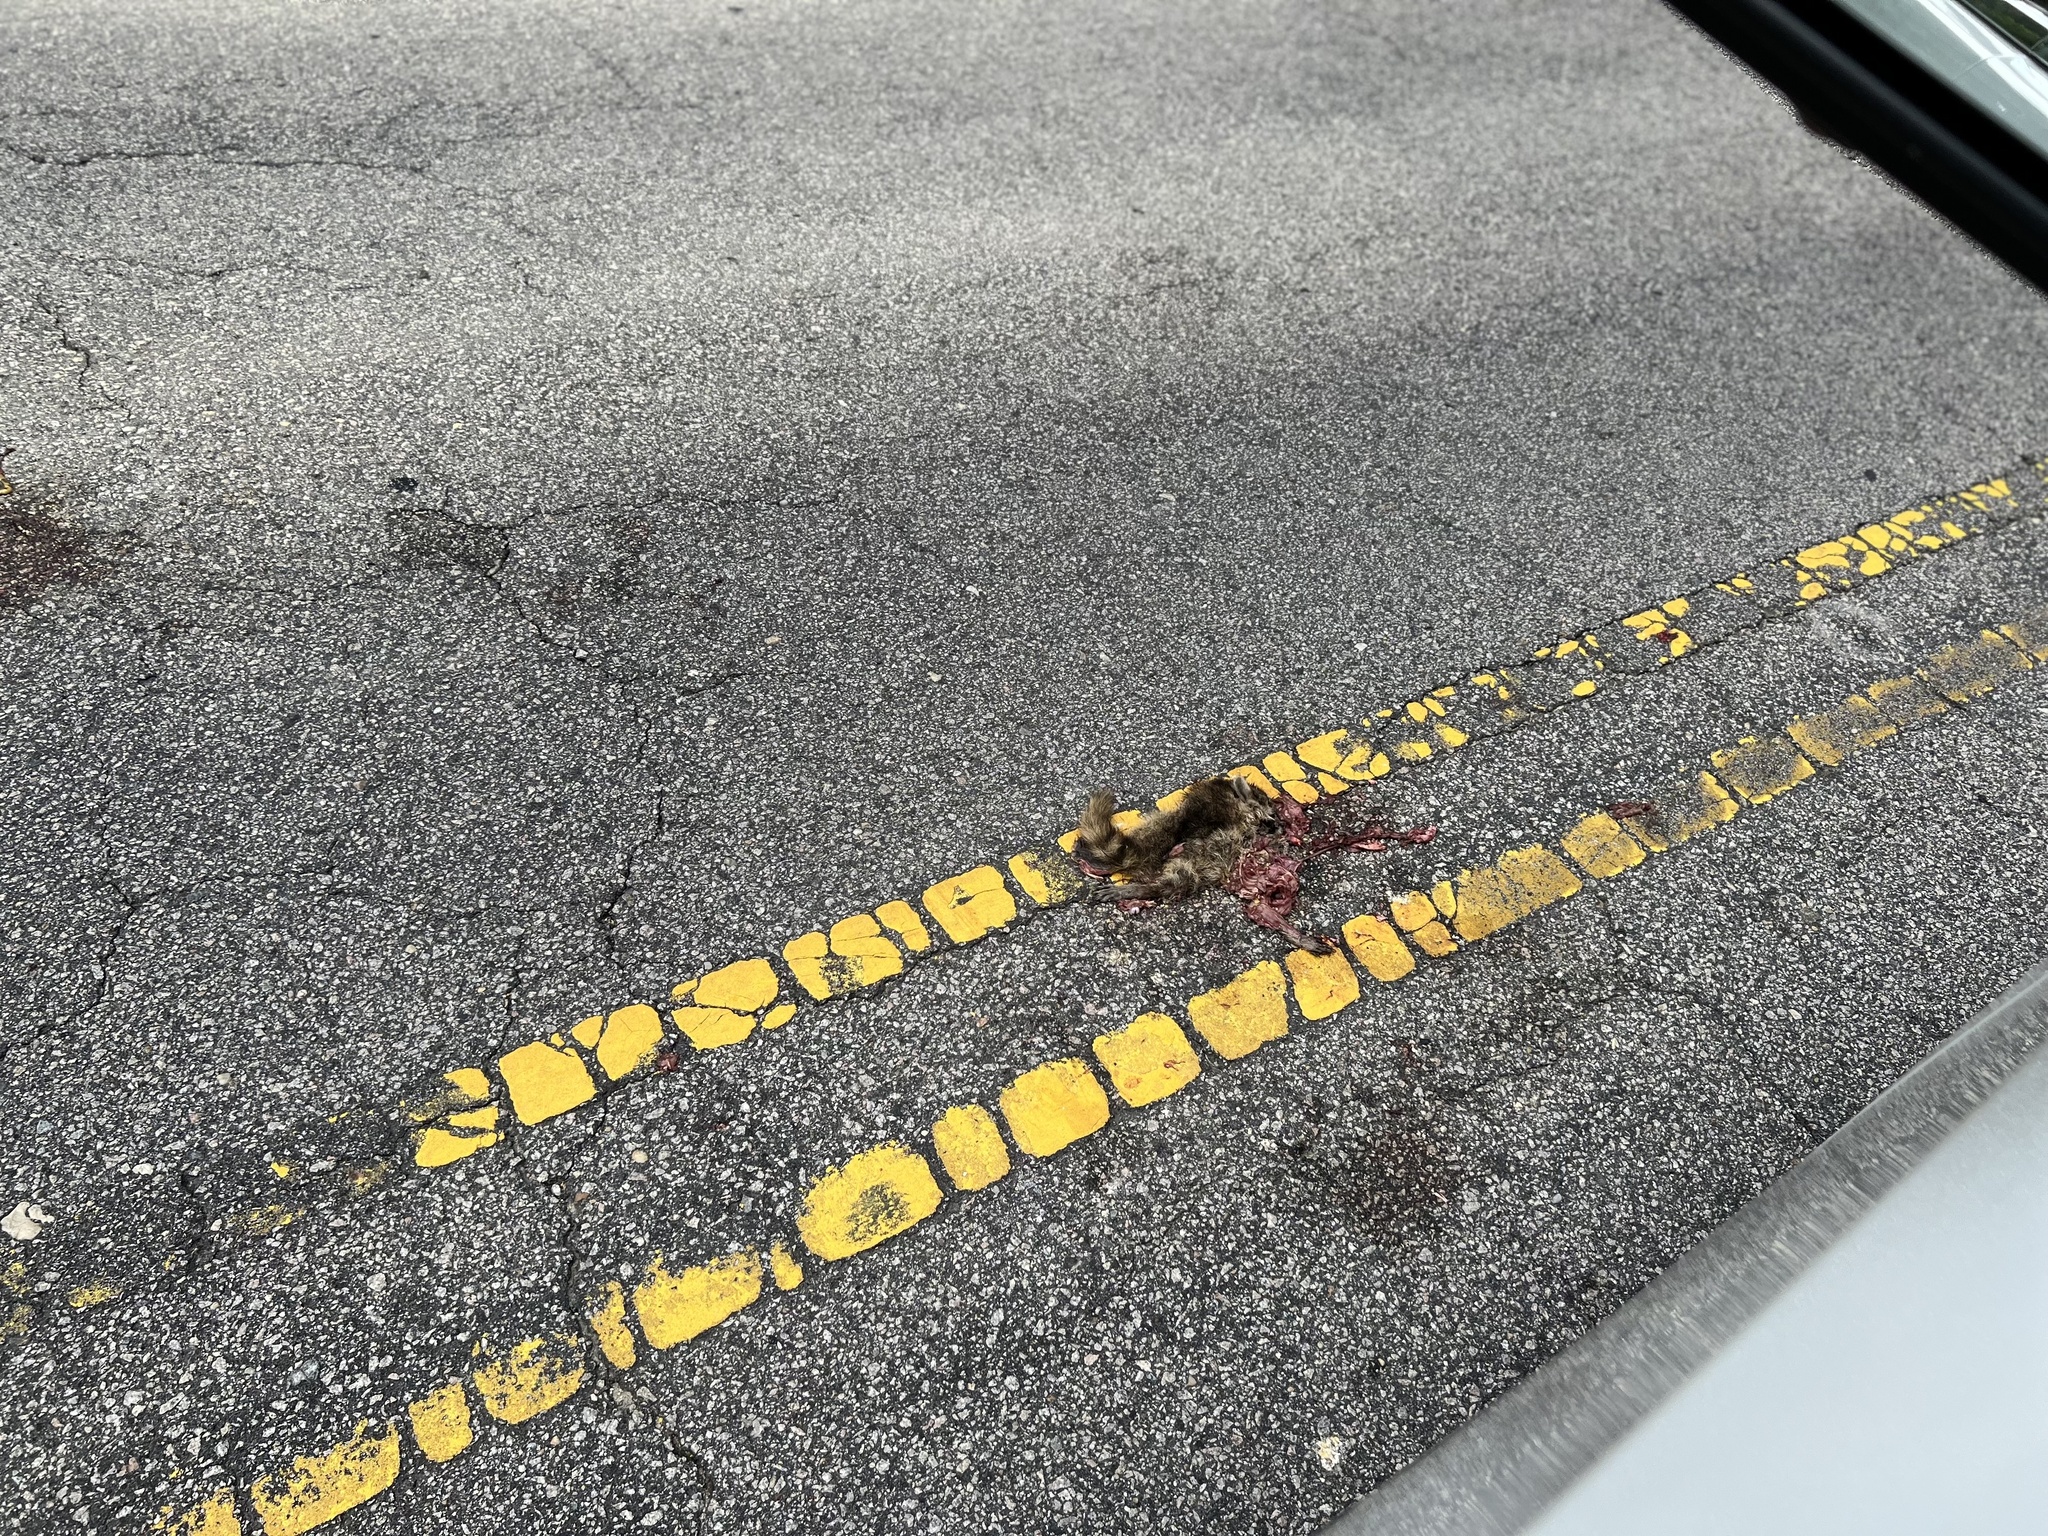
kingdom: Animalia
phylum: Chordata
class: Mammalia
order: Carnivora
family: Procyonidae
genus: Procyon
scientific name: Procyon lotor
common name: Raccoon
